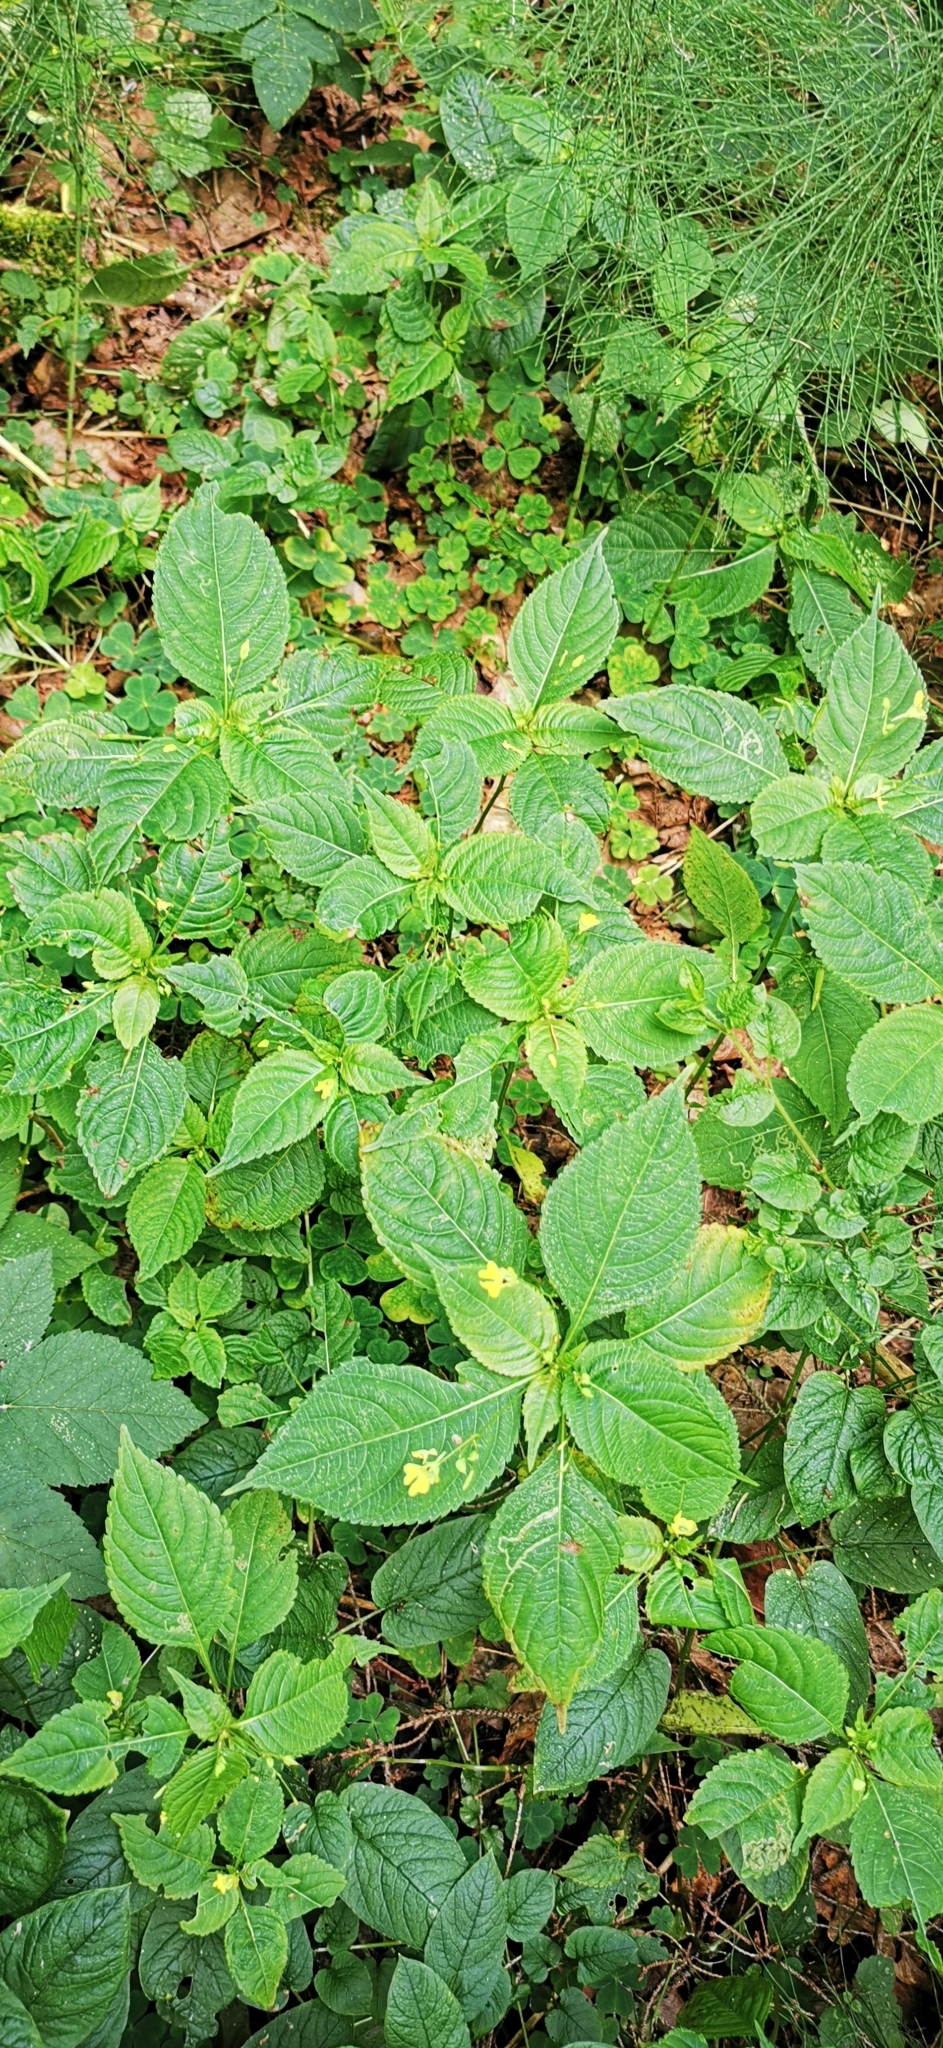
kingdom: Plantae
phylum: Tracheophyta
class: Magnoliopsida
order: Ericales
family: Balsaminaceae
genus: Impatiens
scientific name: Impatiens parviflora
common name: Small balsam
